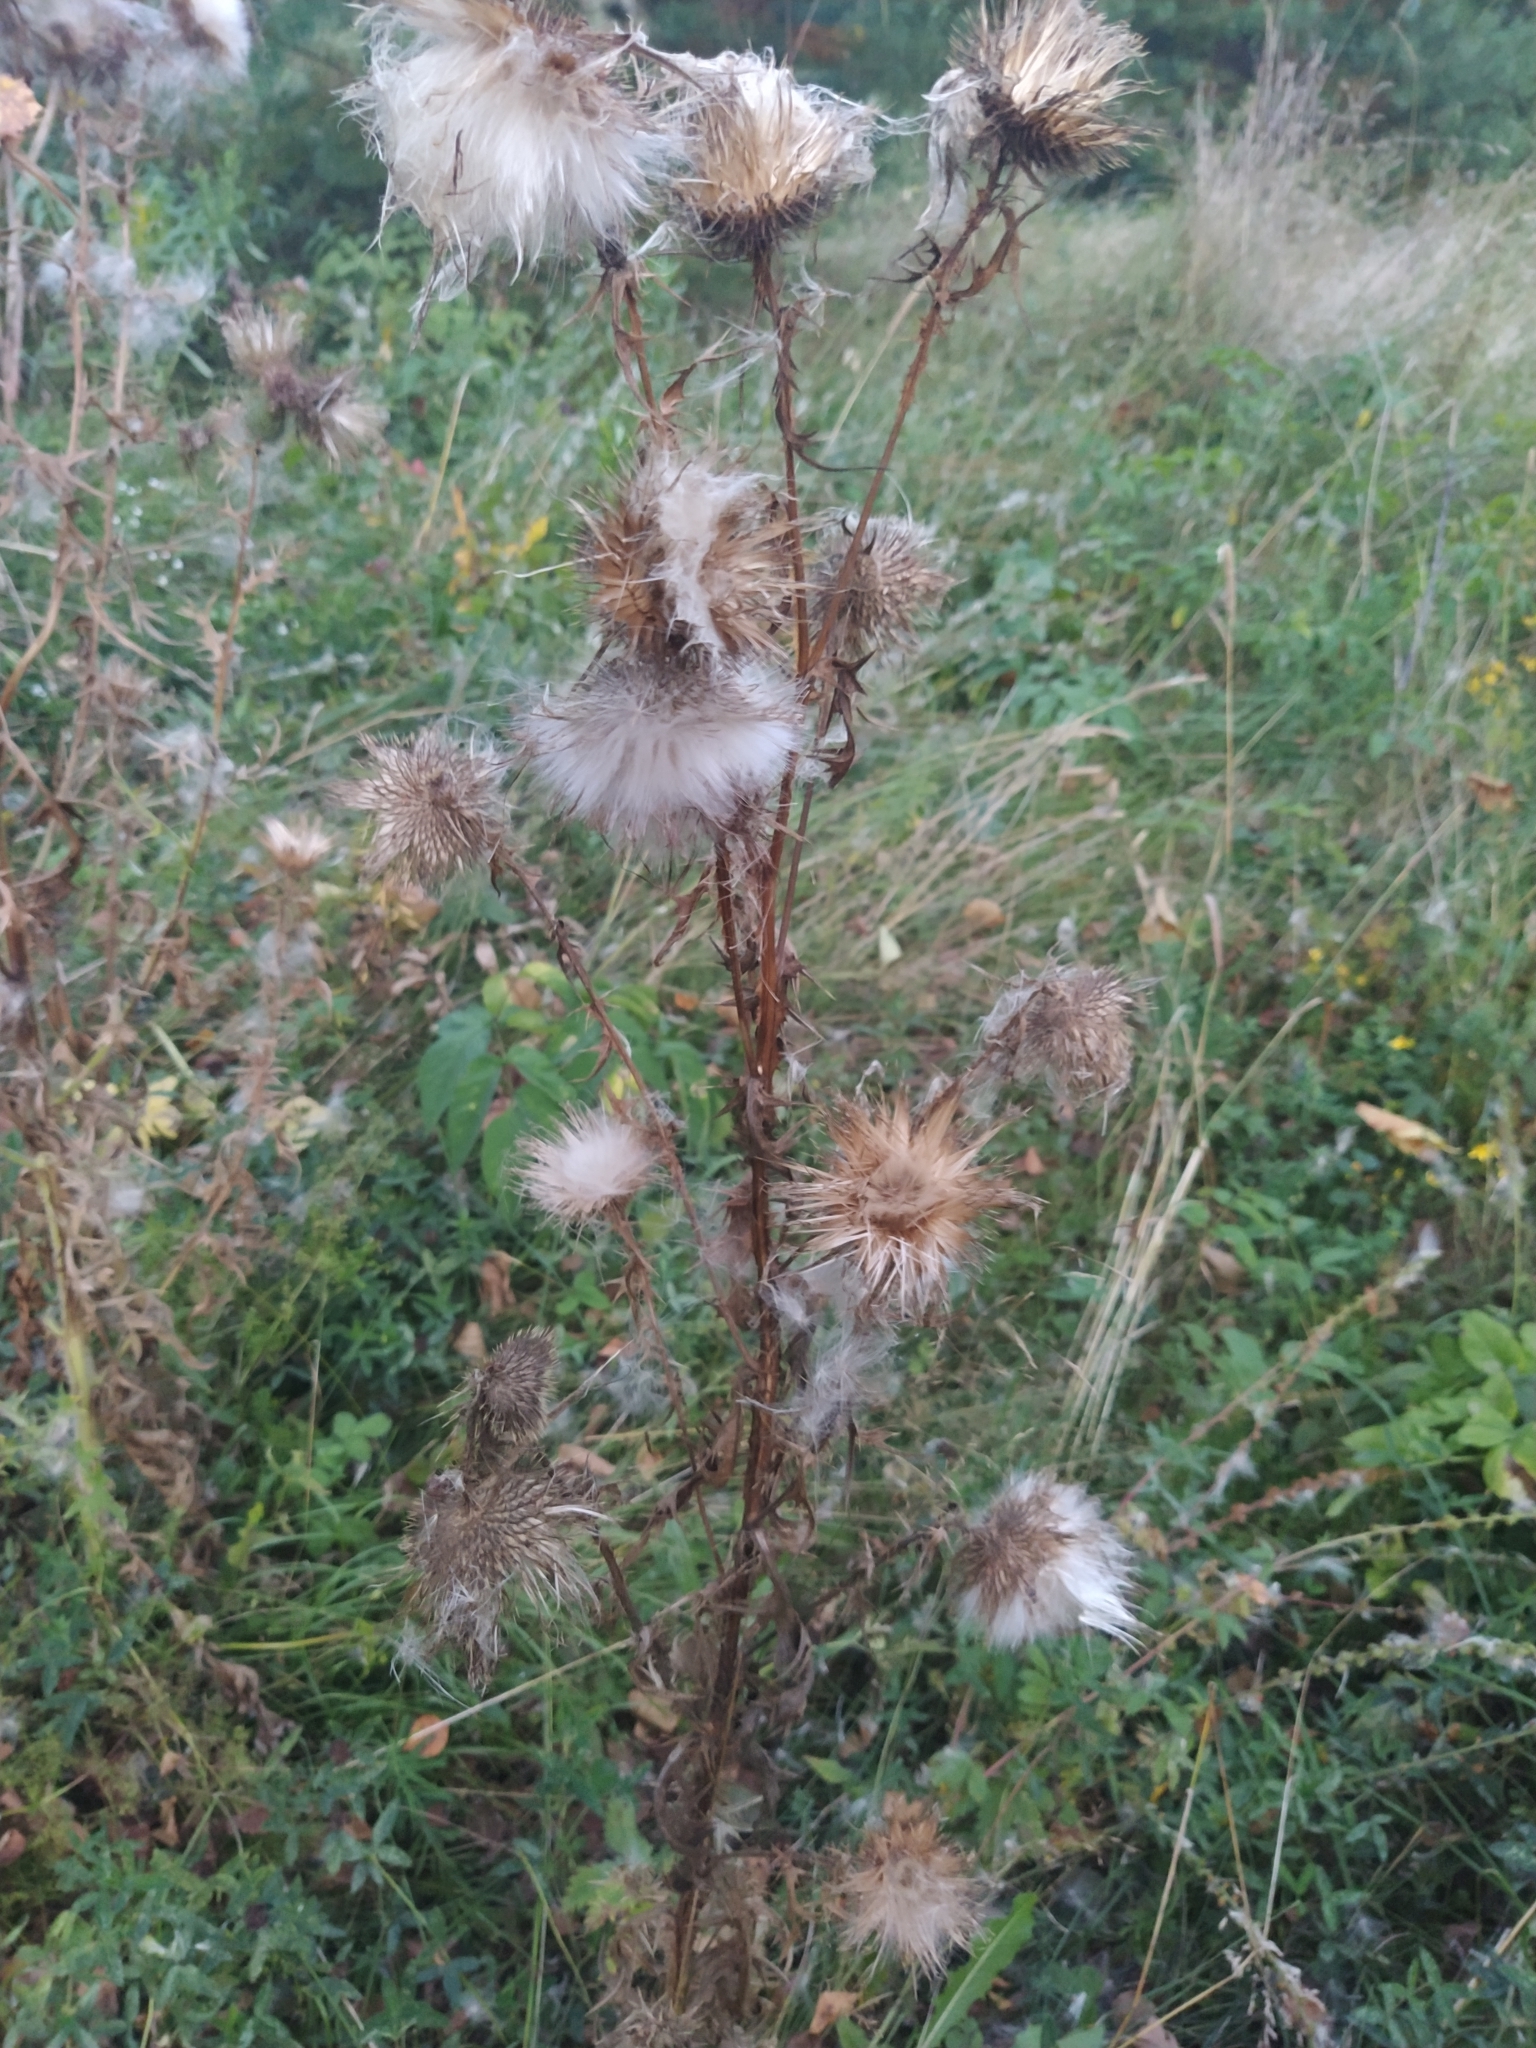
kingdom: Plantae
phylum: Tracheophyta
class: Magnoliopsida
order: Asterales
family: Asteraceae
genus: Cirsium
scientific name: Cirsium vulgare
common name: Bull thistle
